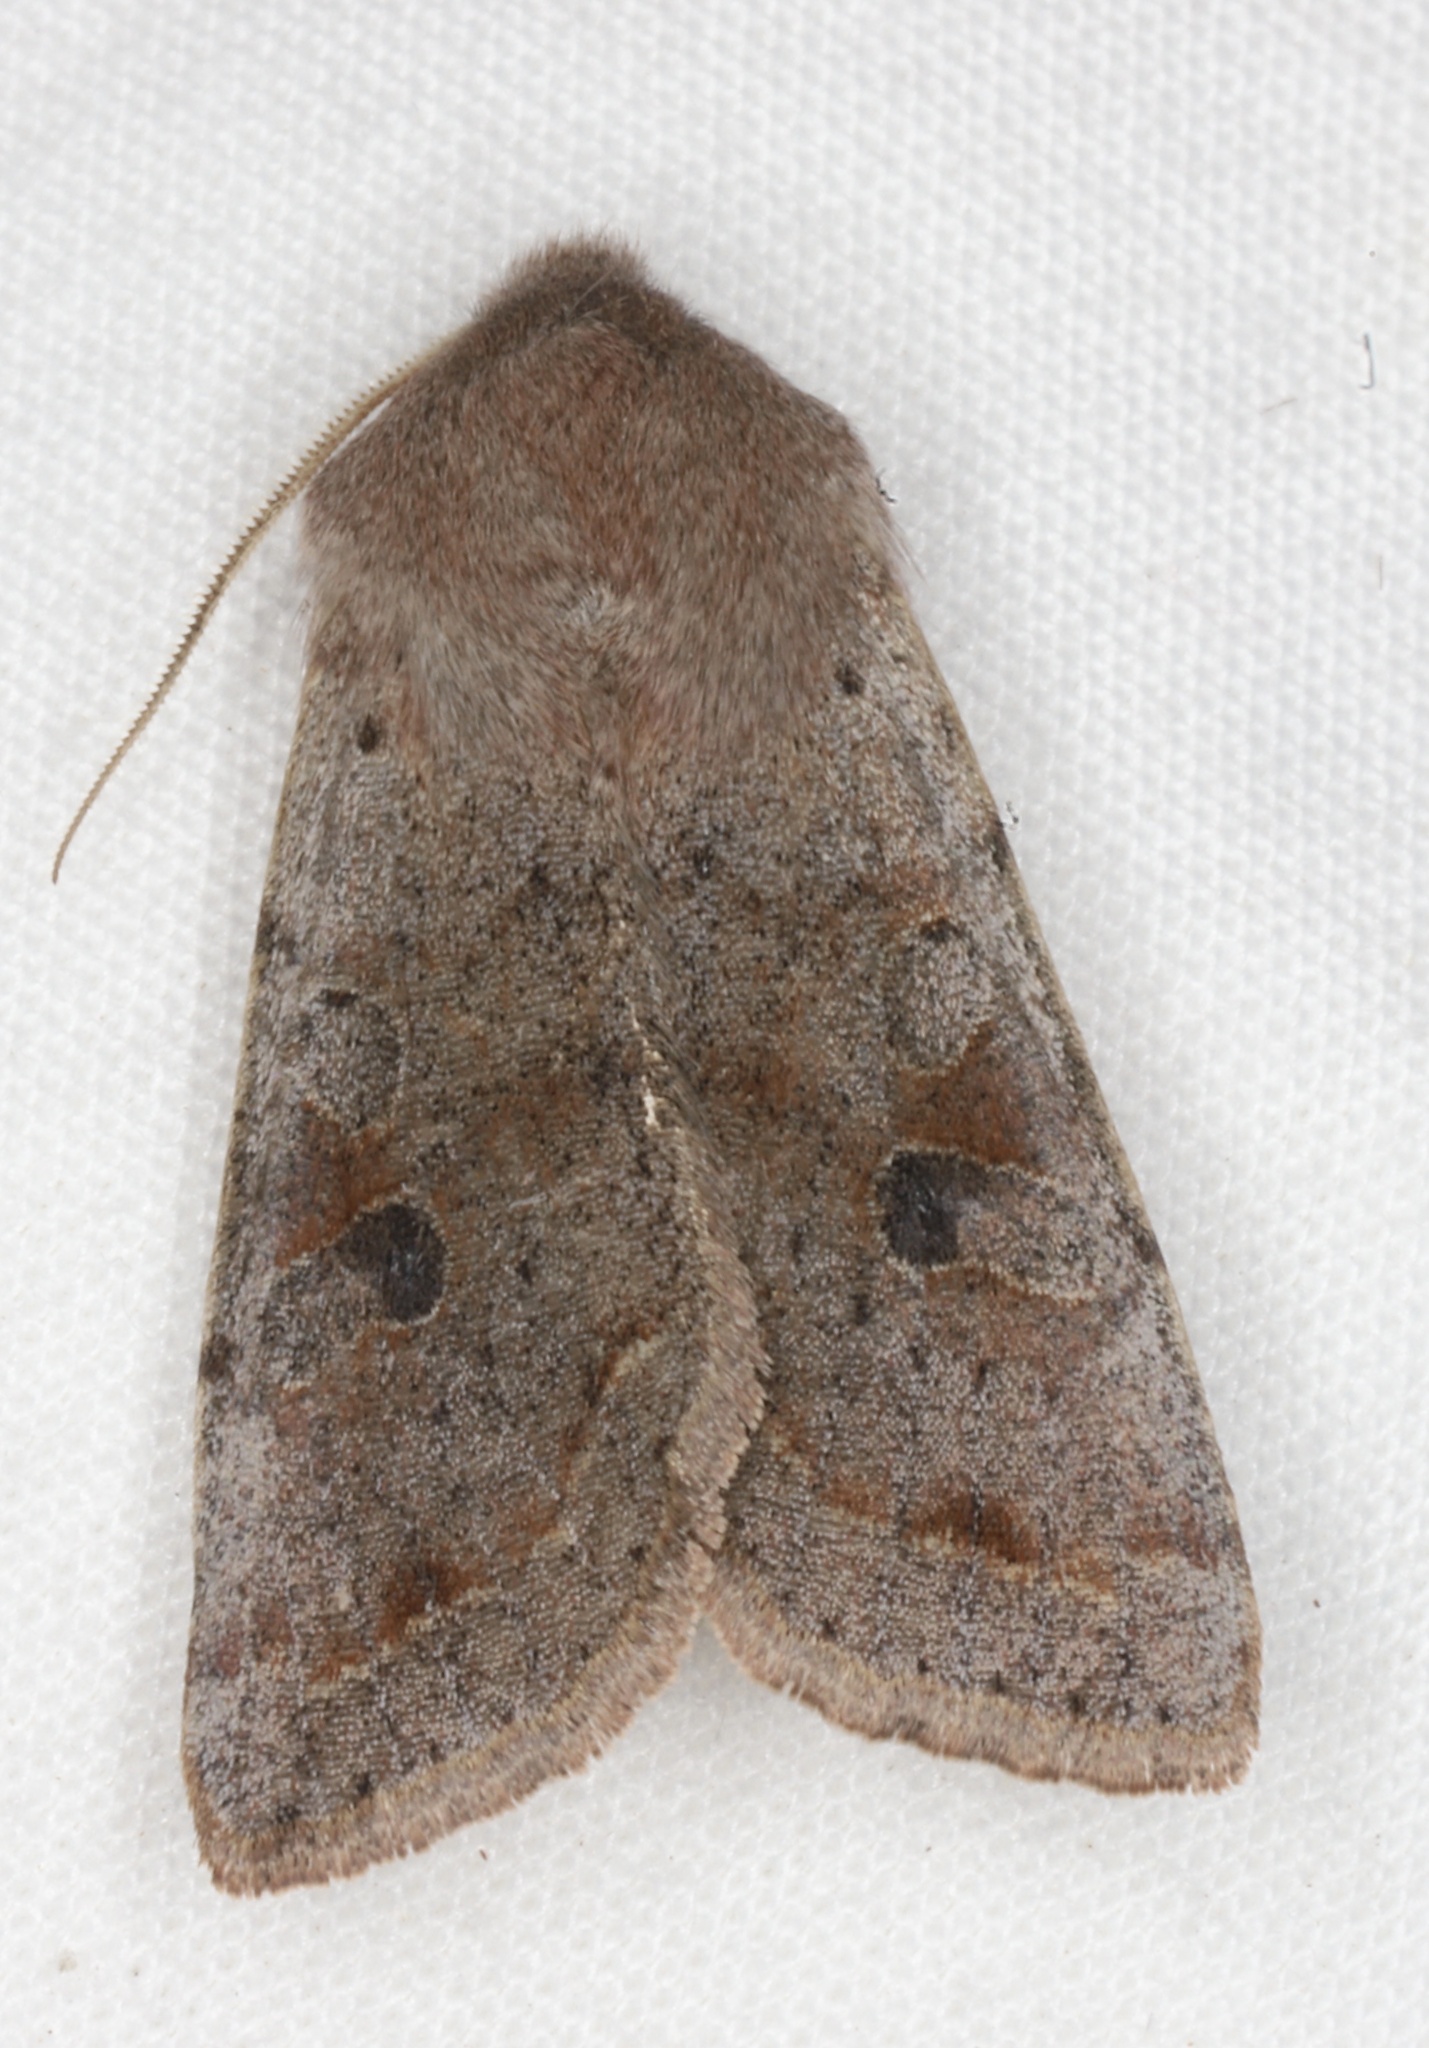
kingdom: Animalia
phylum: Arthropoda
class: Insecta
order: Lepidoptera
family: Noctuidae
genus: Orthosia
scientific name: Orthosia hibisci
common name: Green fruitworm
